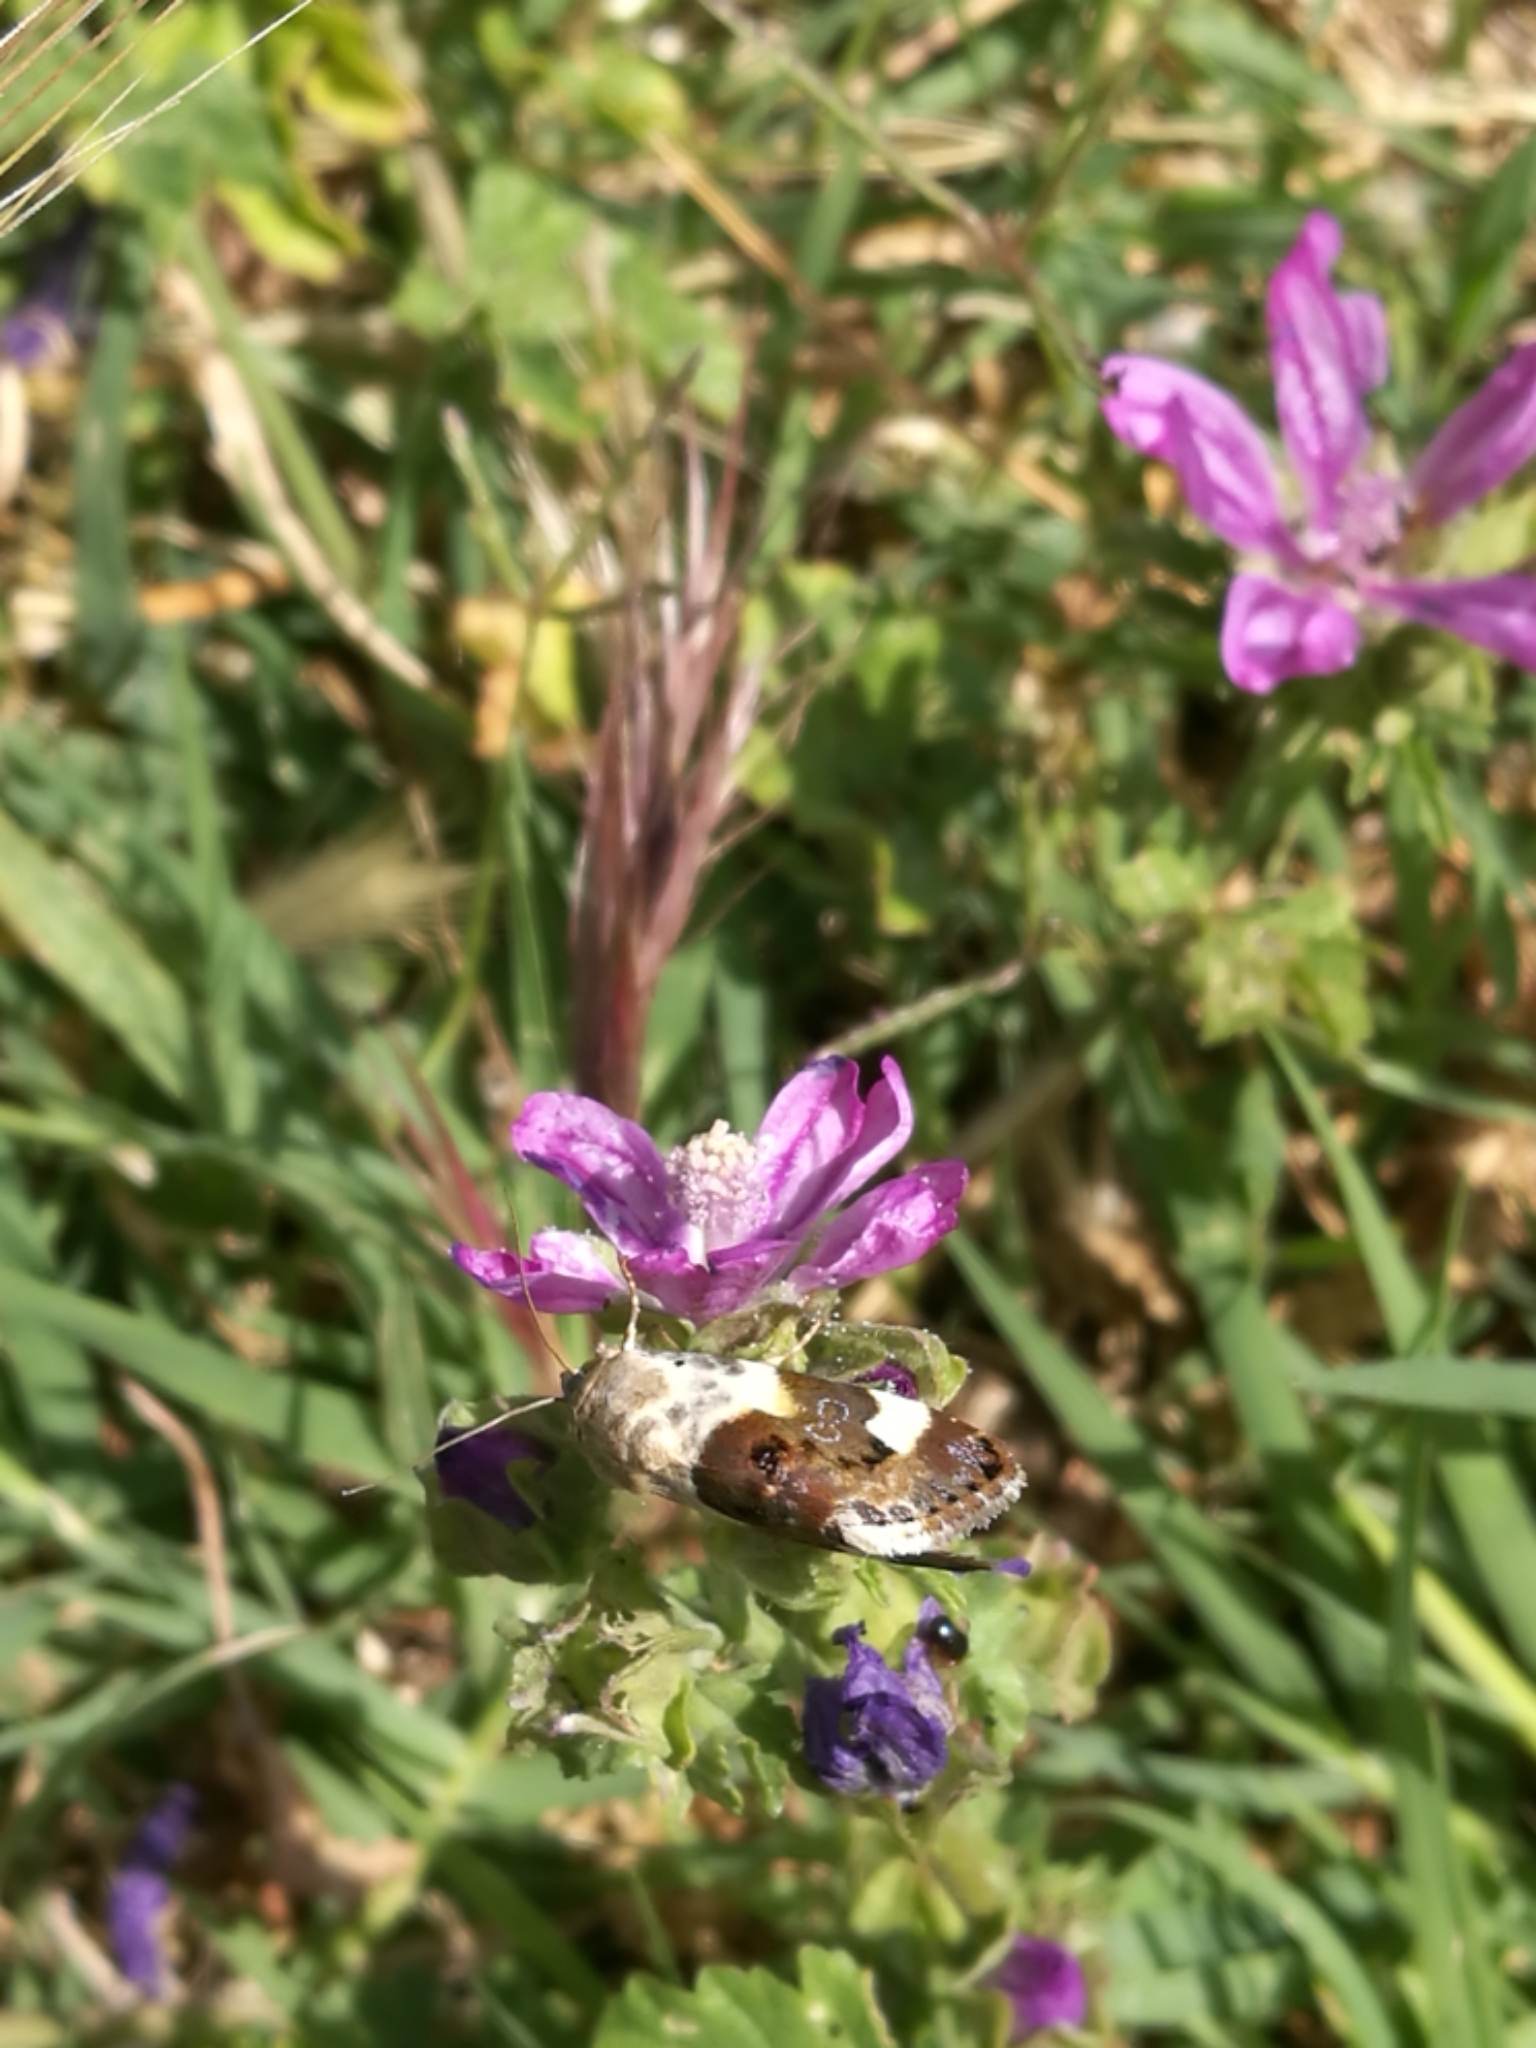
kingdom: Animalia
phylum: Arthropoda
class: Insecta
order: Lepidoptera
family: Noctuidae
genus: Acontia
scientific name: Acontia lucida
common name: Pale shoulder
